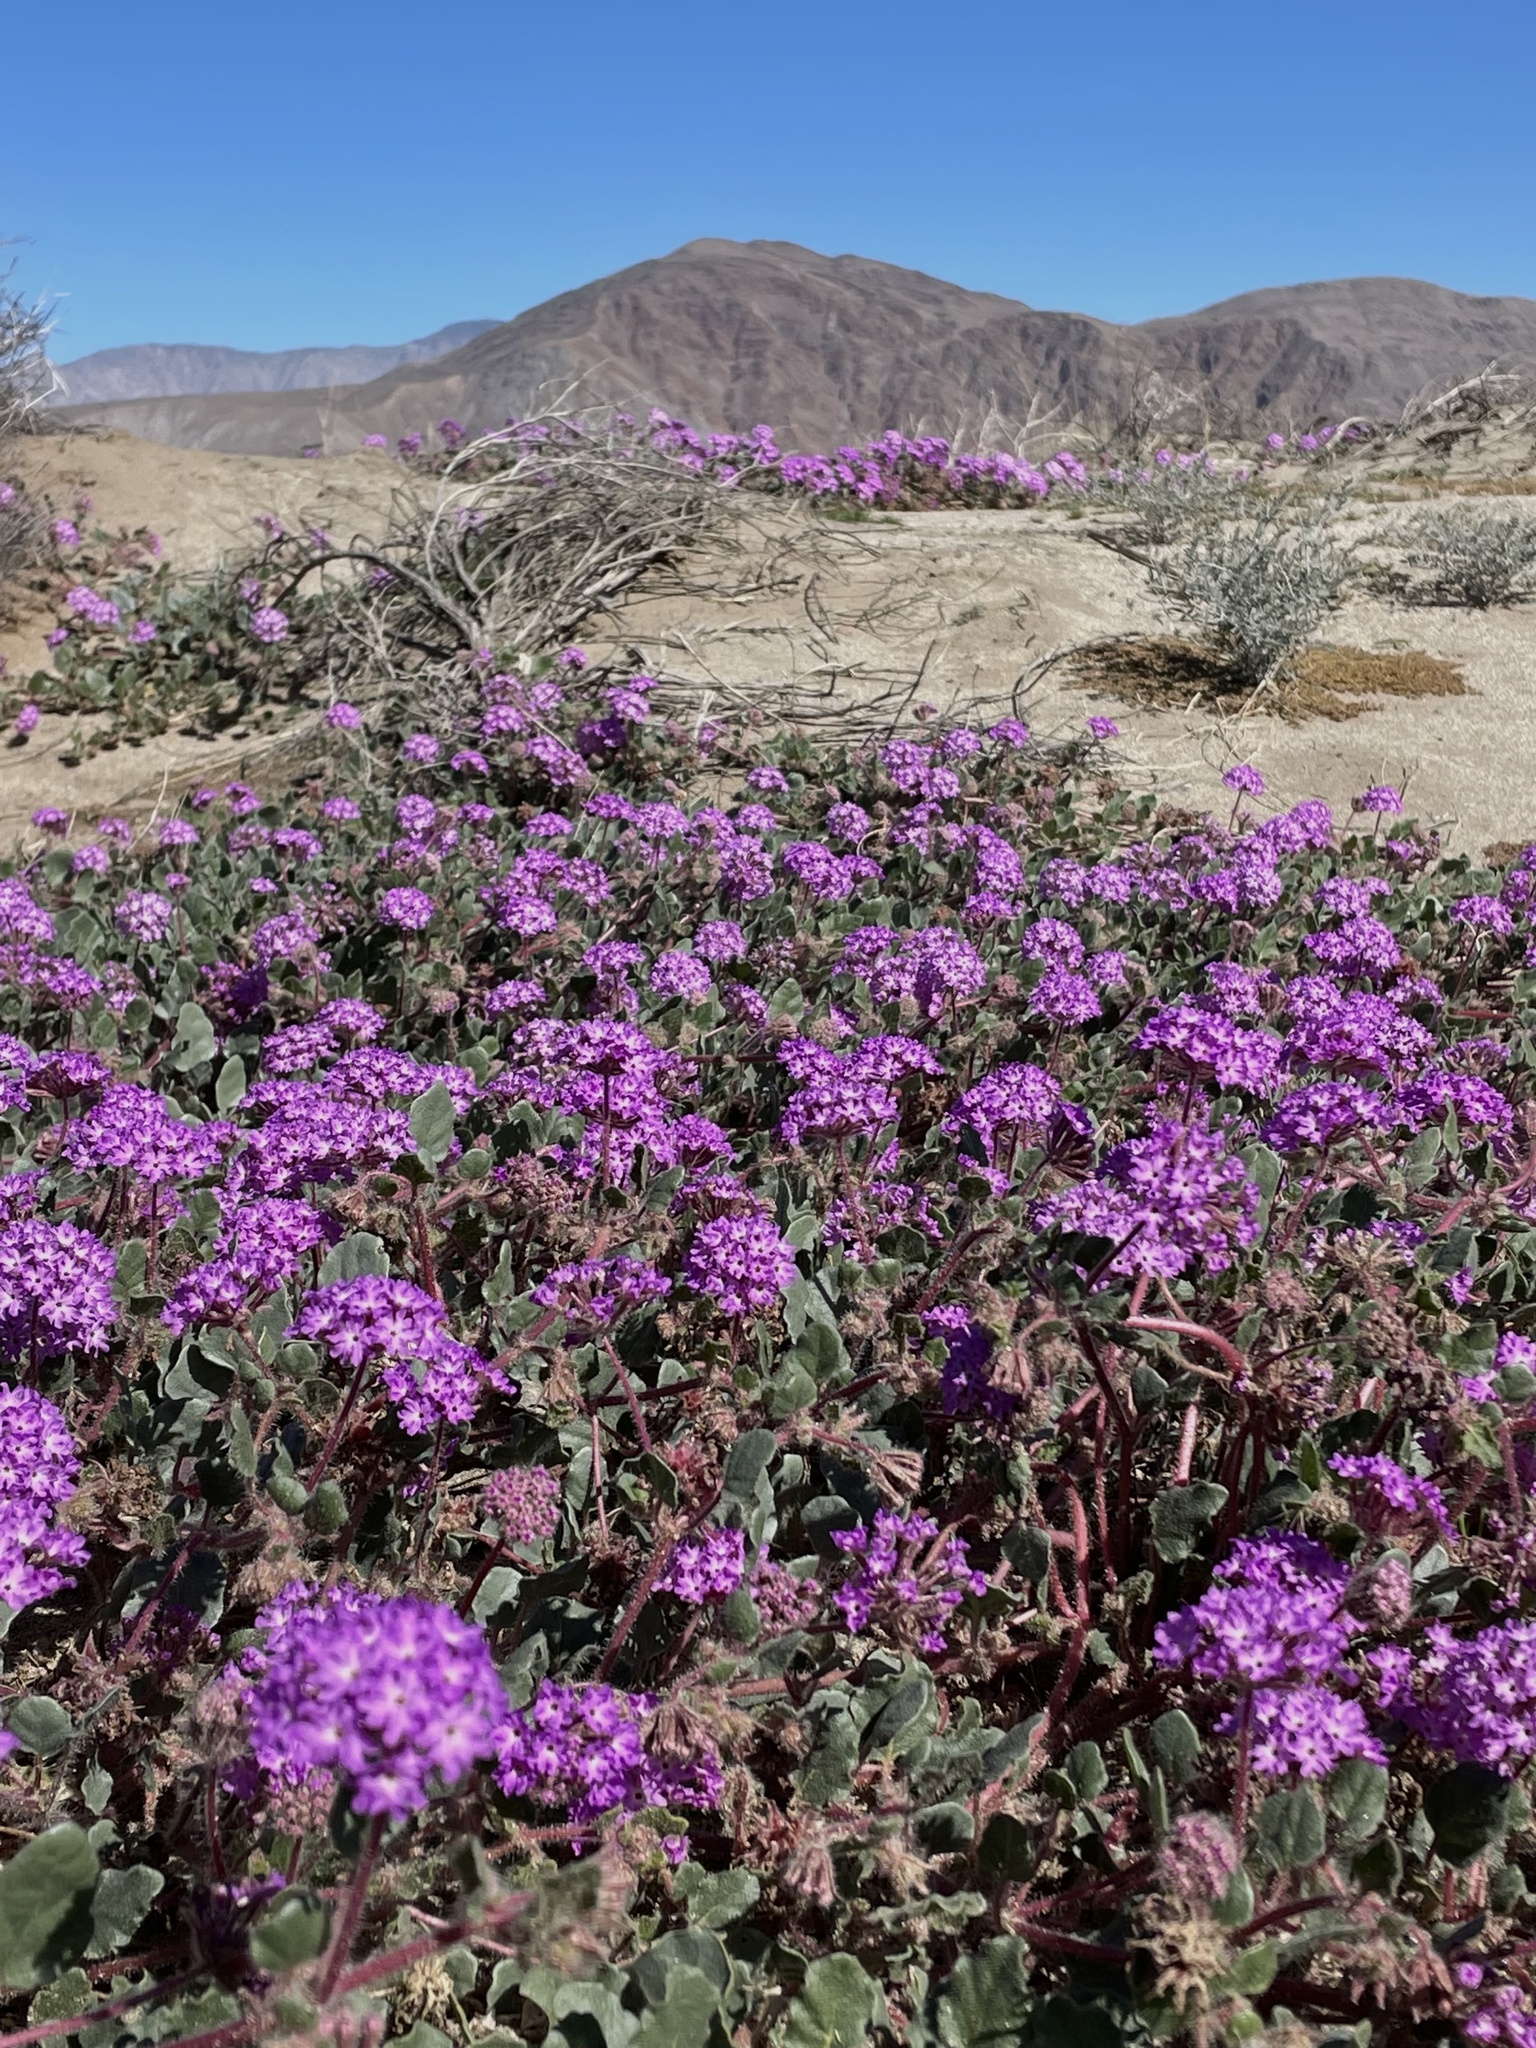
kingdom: Plantae
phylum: Tracheophyta
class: Magnoliopsida
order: Caryophyllales
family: Nyctaginaceae
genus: Abronia
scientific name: Abronia villosa
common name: Desert sand-verbena
